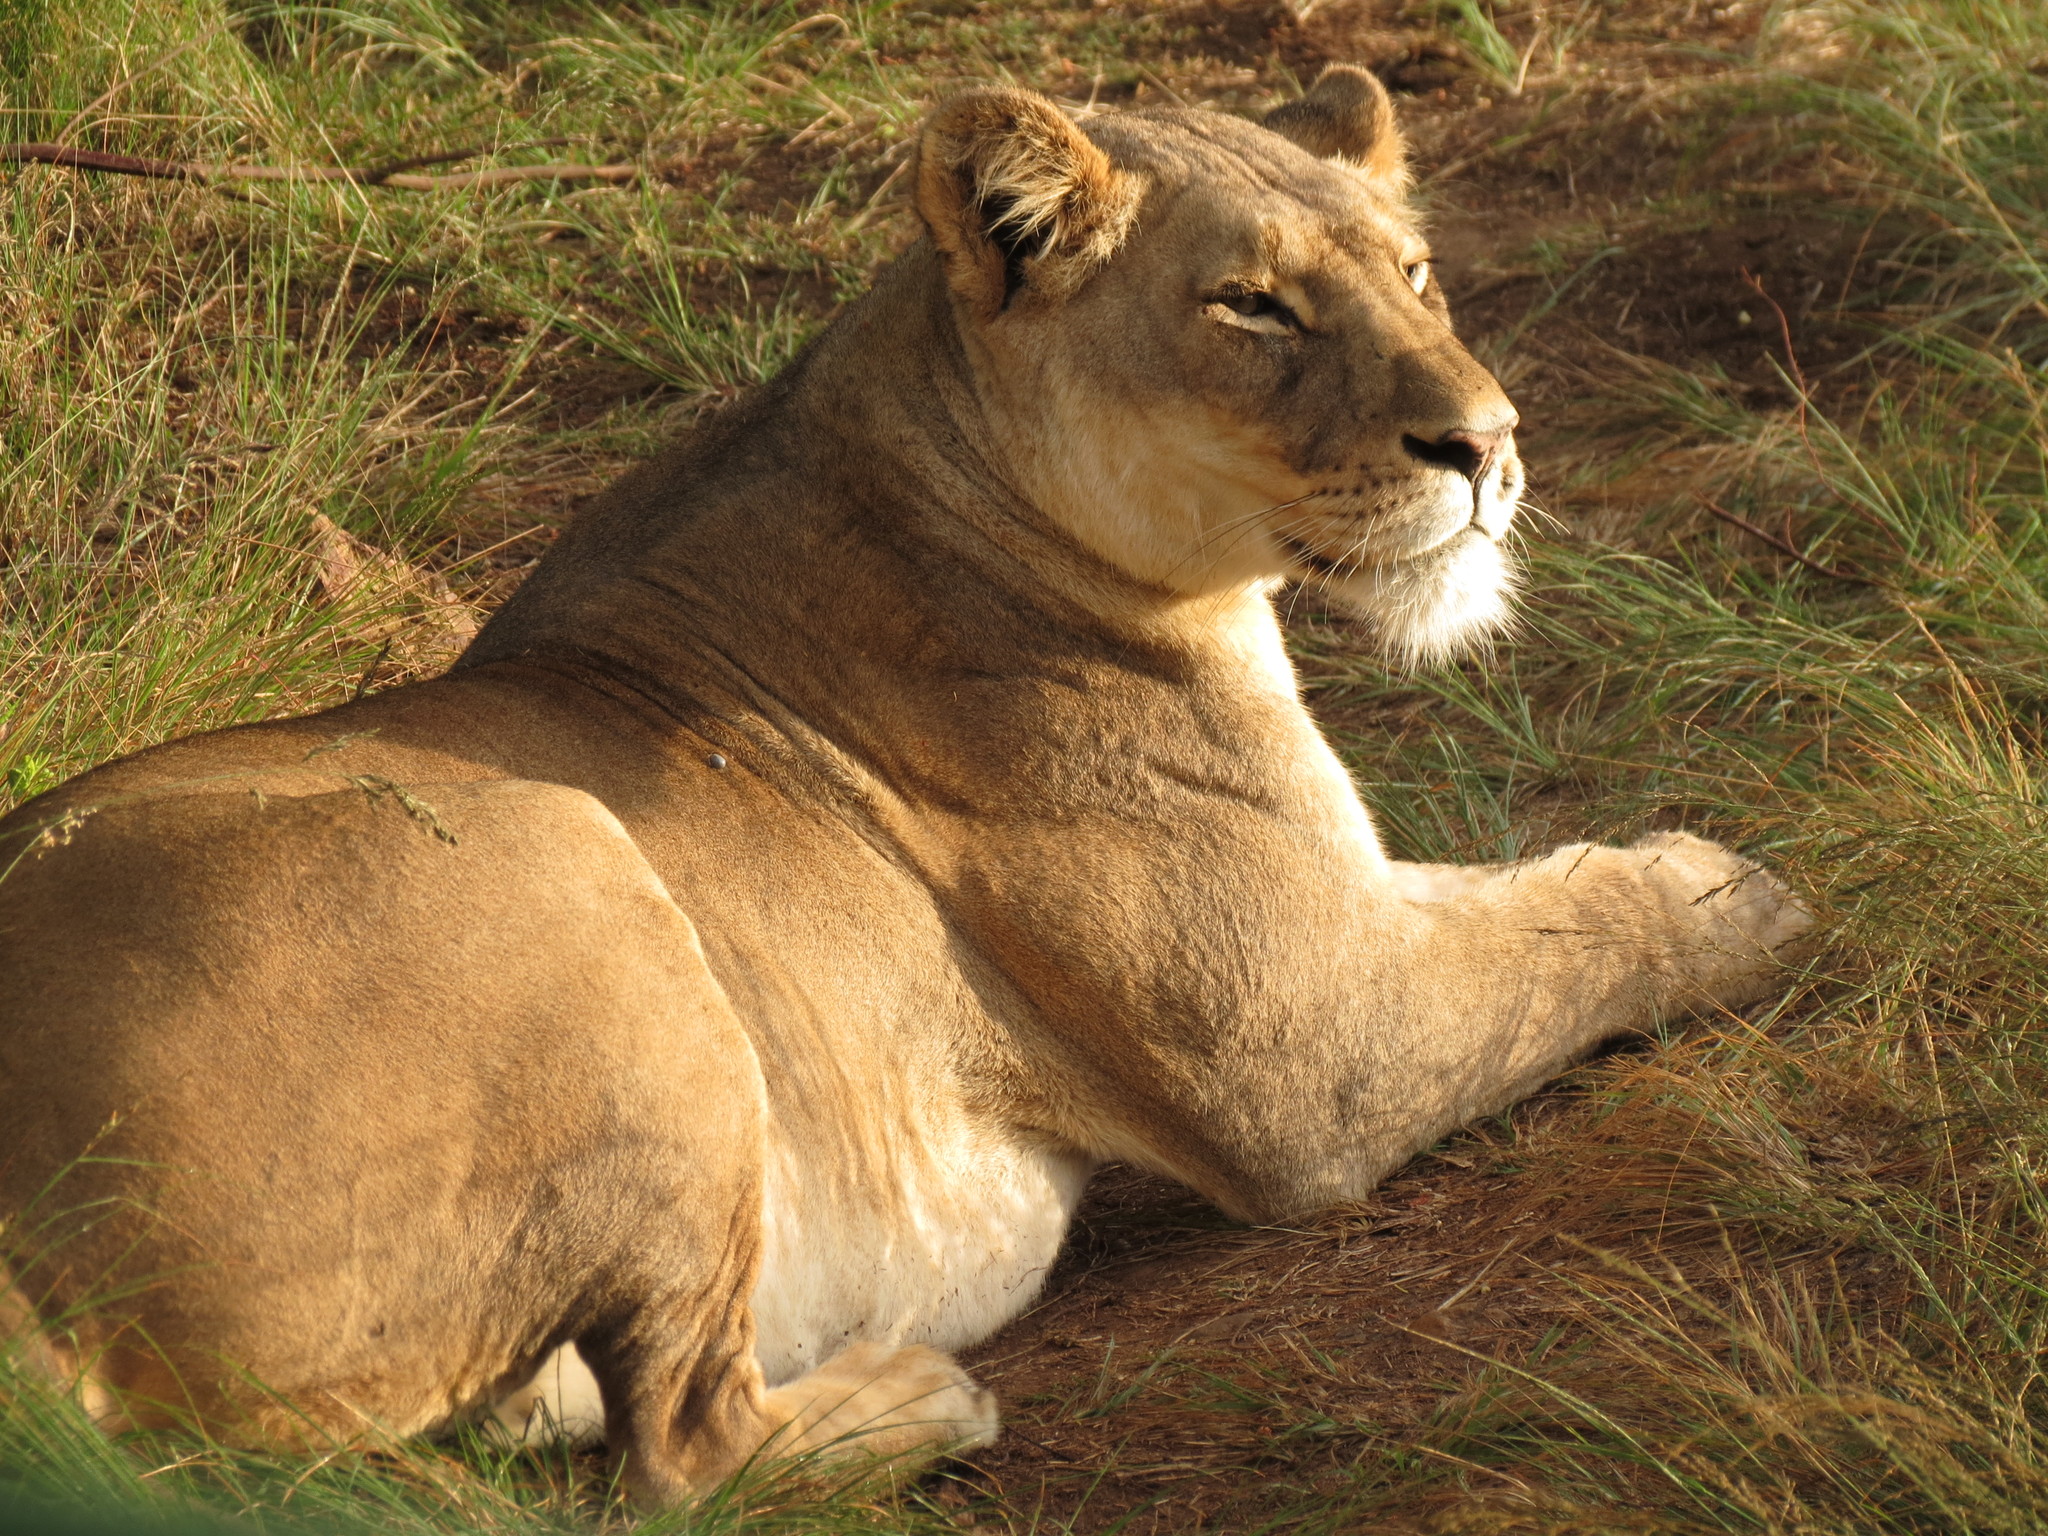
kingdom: Animalia
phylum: Chordata
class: Mammalia
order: Carnivora
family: Felidae
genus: Panthera
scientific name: Panthera leo
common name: Lion
